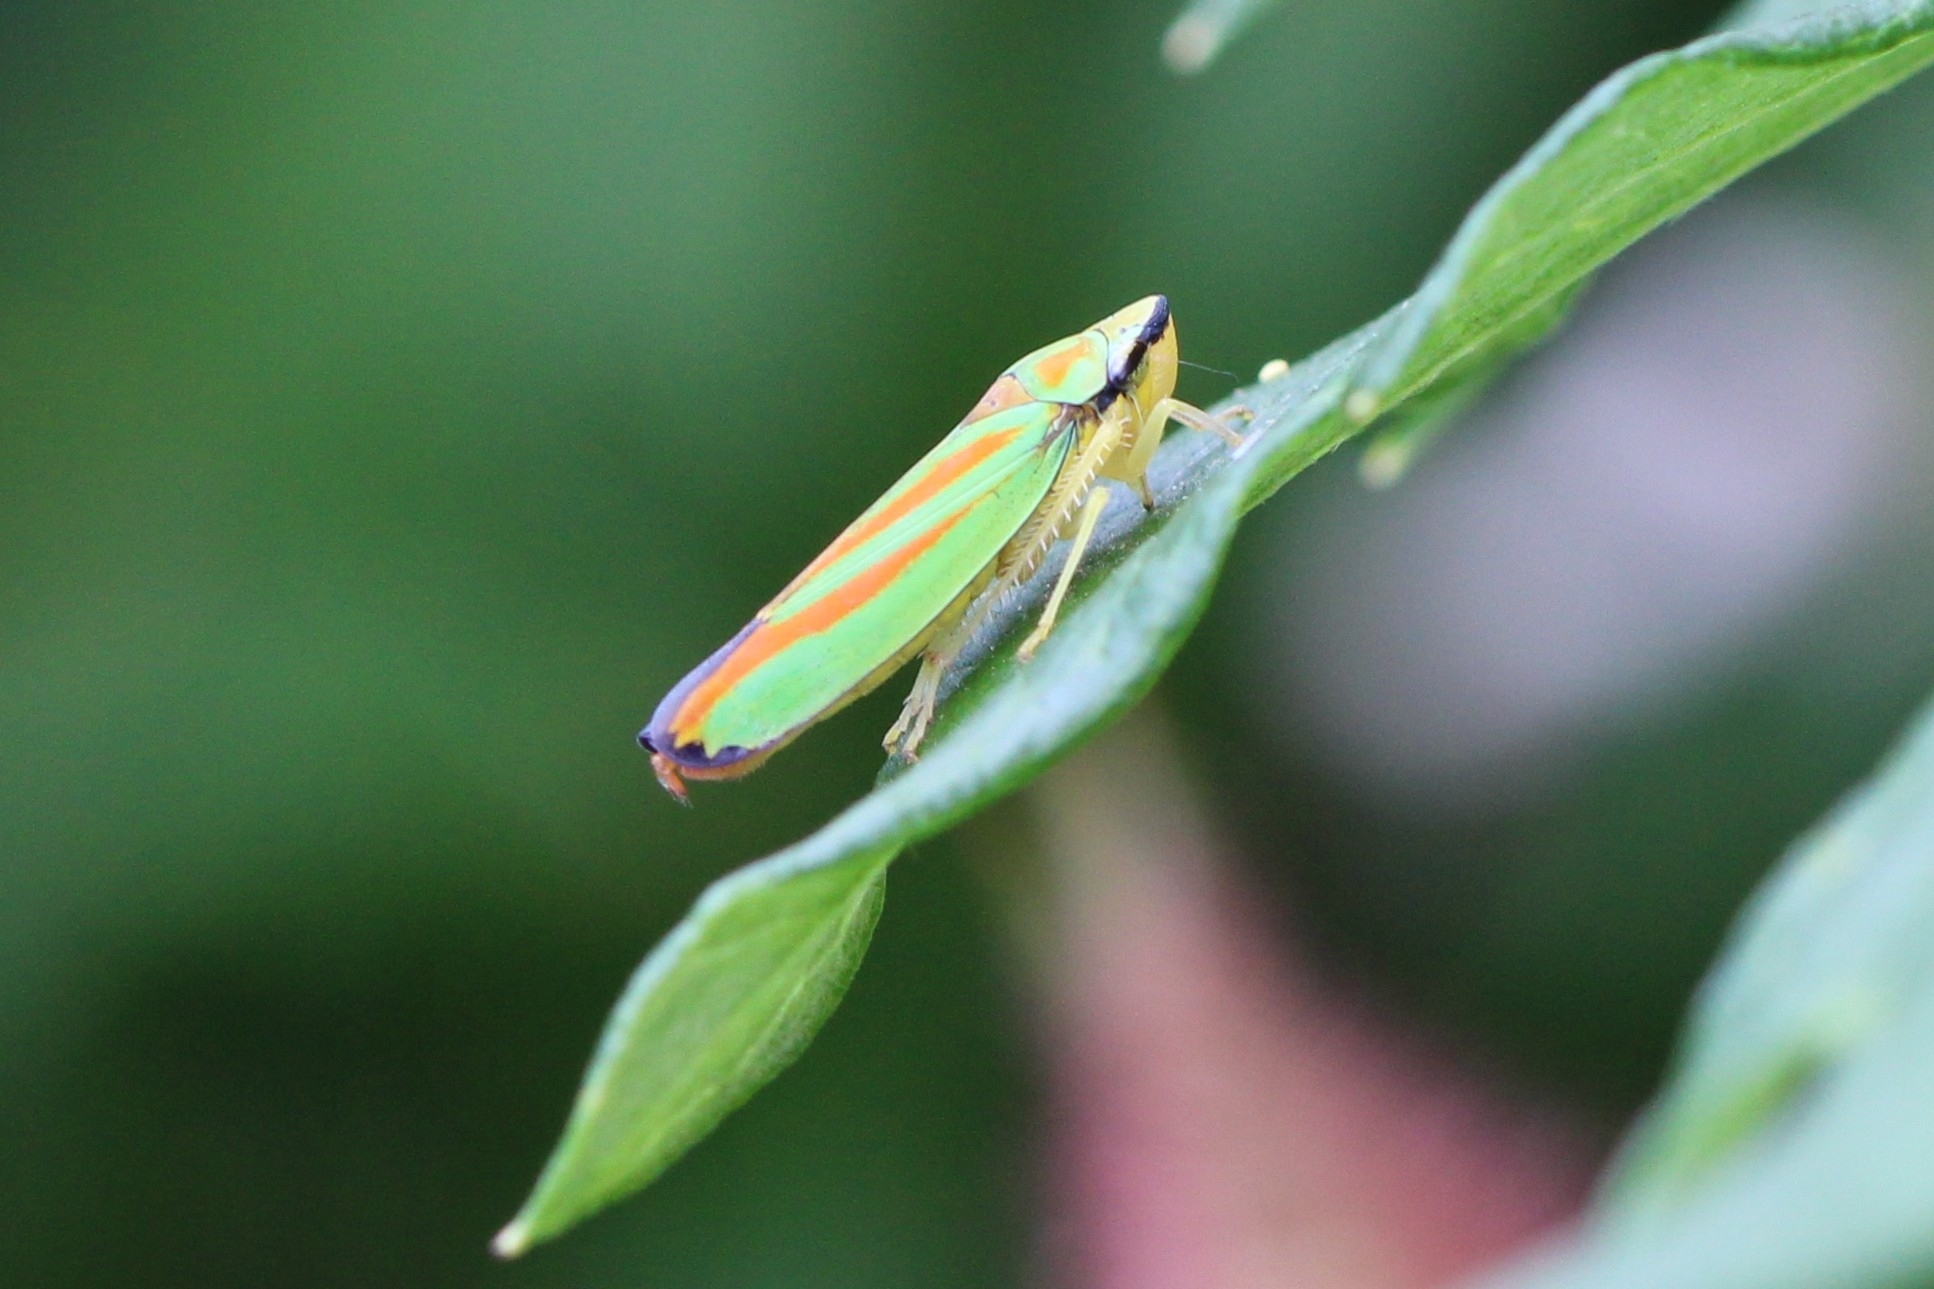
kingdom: Animalia
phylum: Arthropoda
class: Insecta
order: Hemiptera
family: Cicadellidae
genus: Graphocephala
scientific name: Graphocephala fennahi
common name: Rhododendron leafhopper
